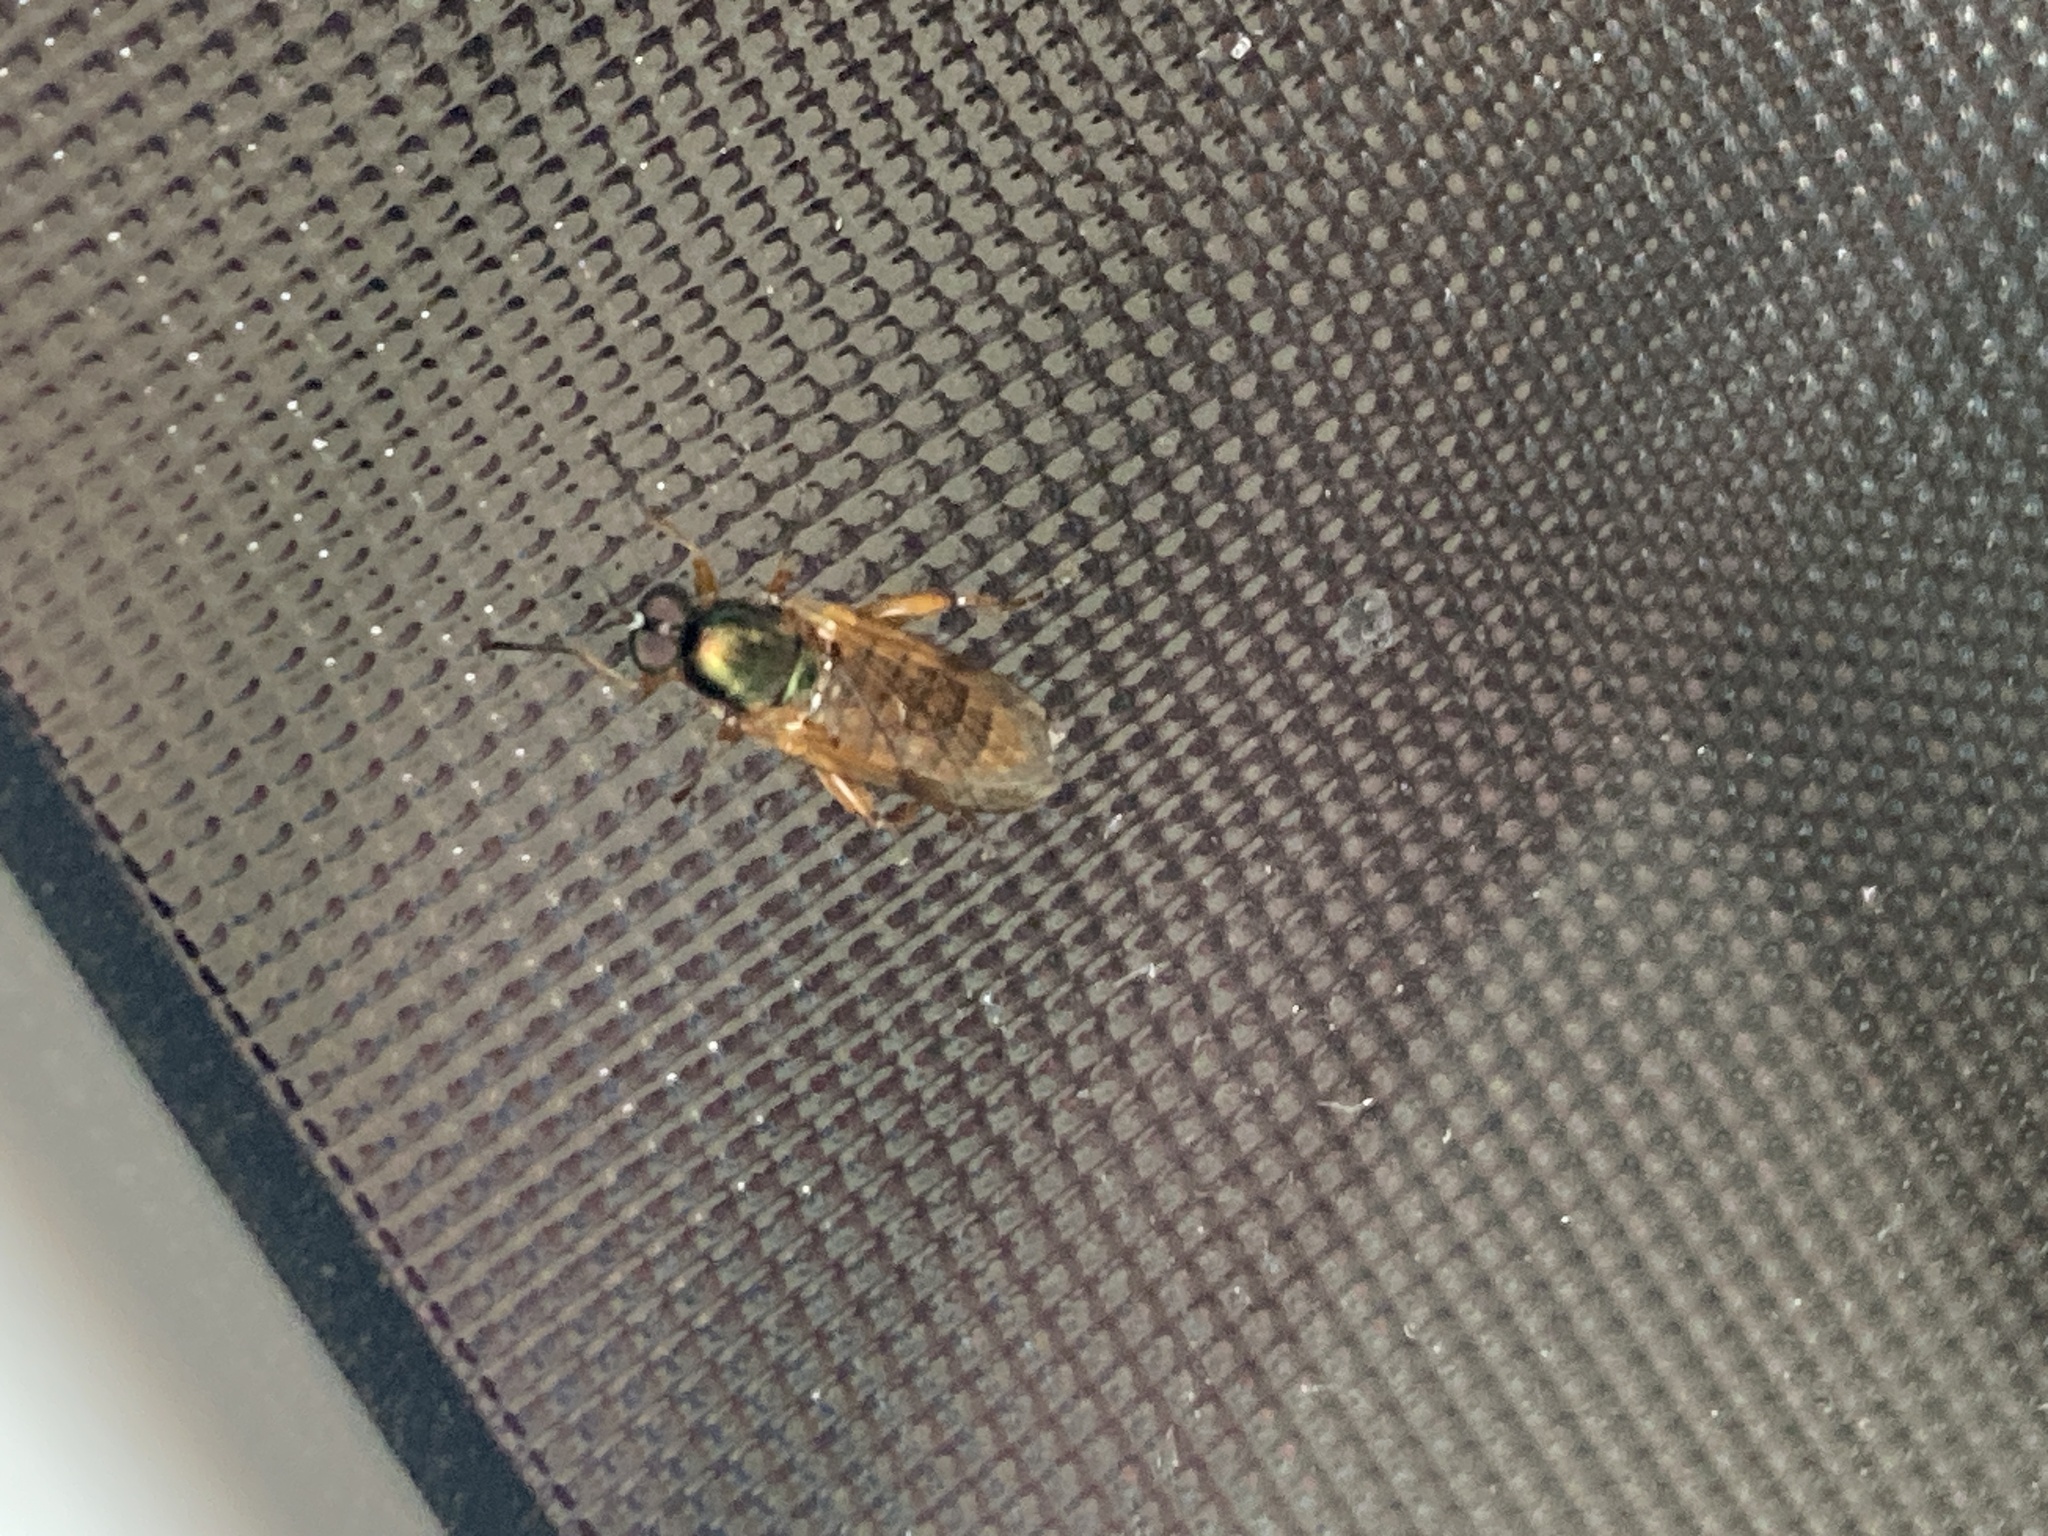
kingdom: Animalia
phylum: Arthropoda
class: Insecta
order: Diptera
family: Stratiomyidae
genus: Neactina
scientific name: Neactina opposita
